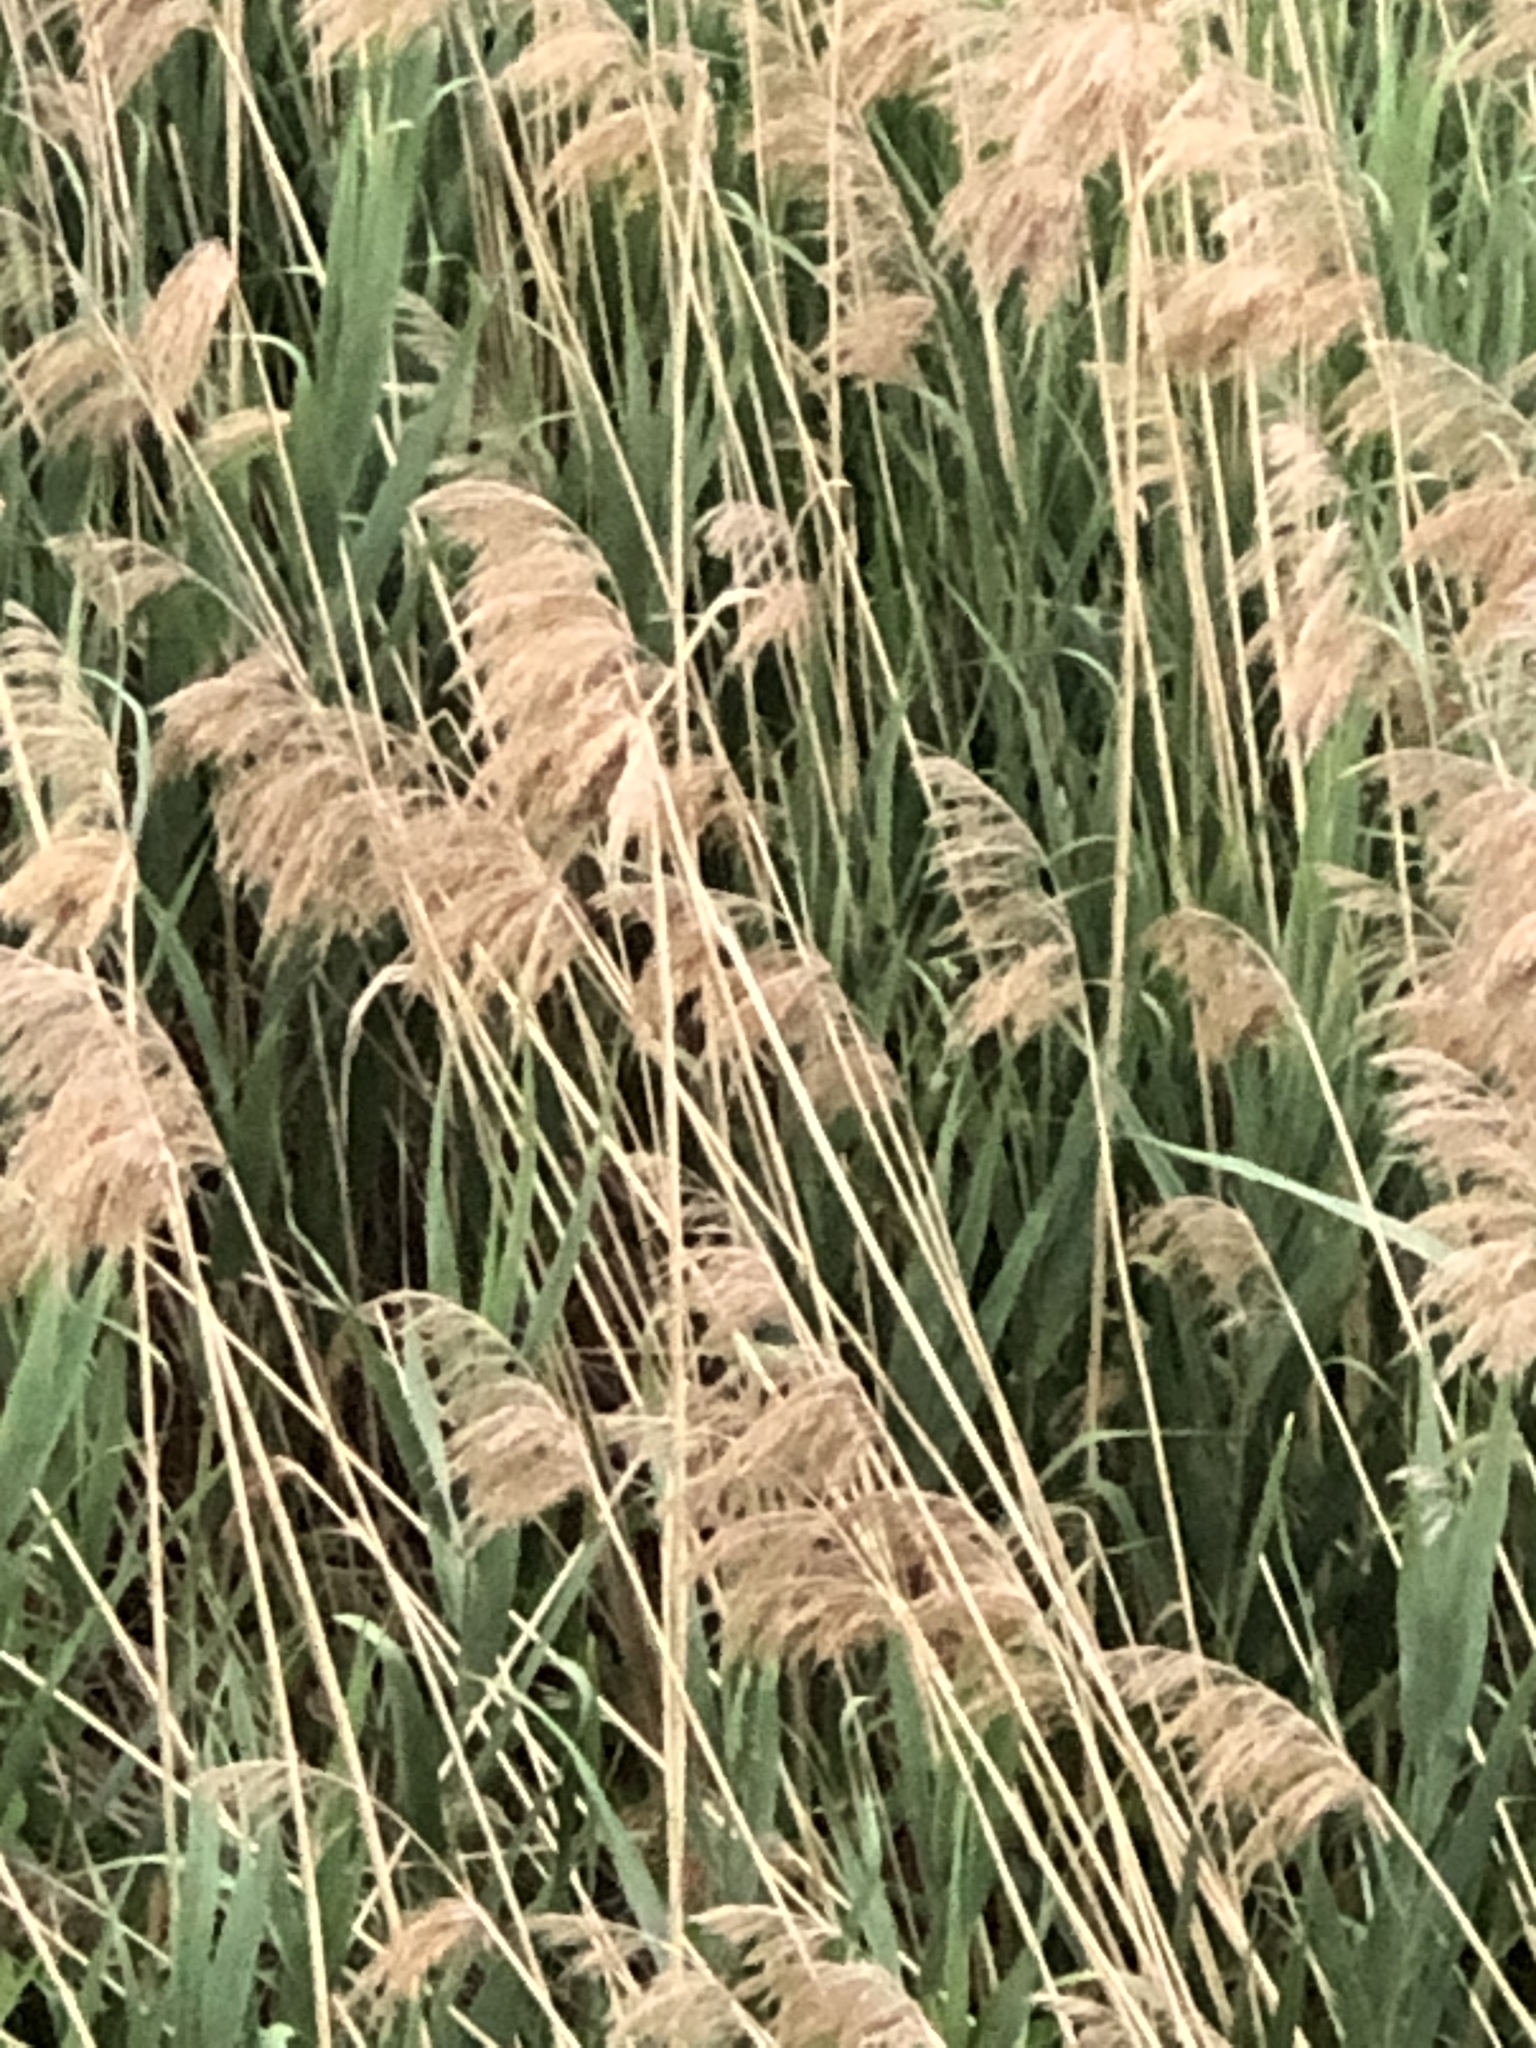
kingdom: Plantae
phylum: Tracheophyta
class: Liliopsida
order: Poales
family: Poaceae
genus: Phragmites
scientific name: Phragmites australis
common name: Common reed
